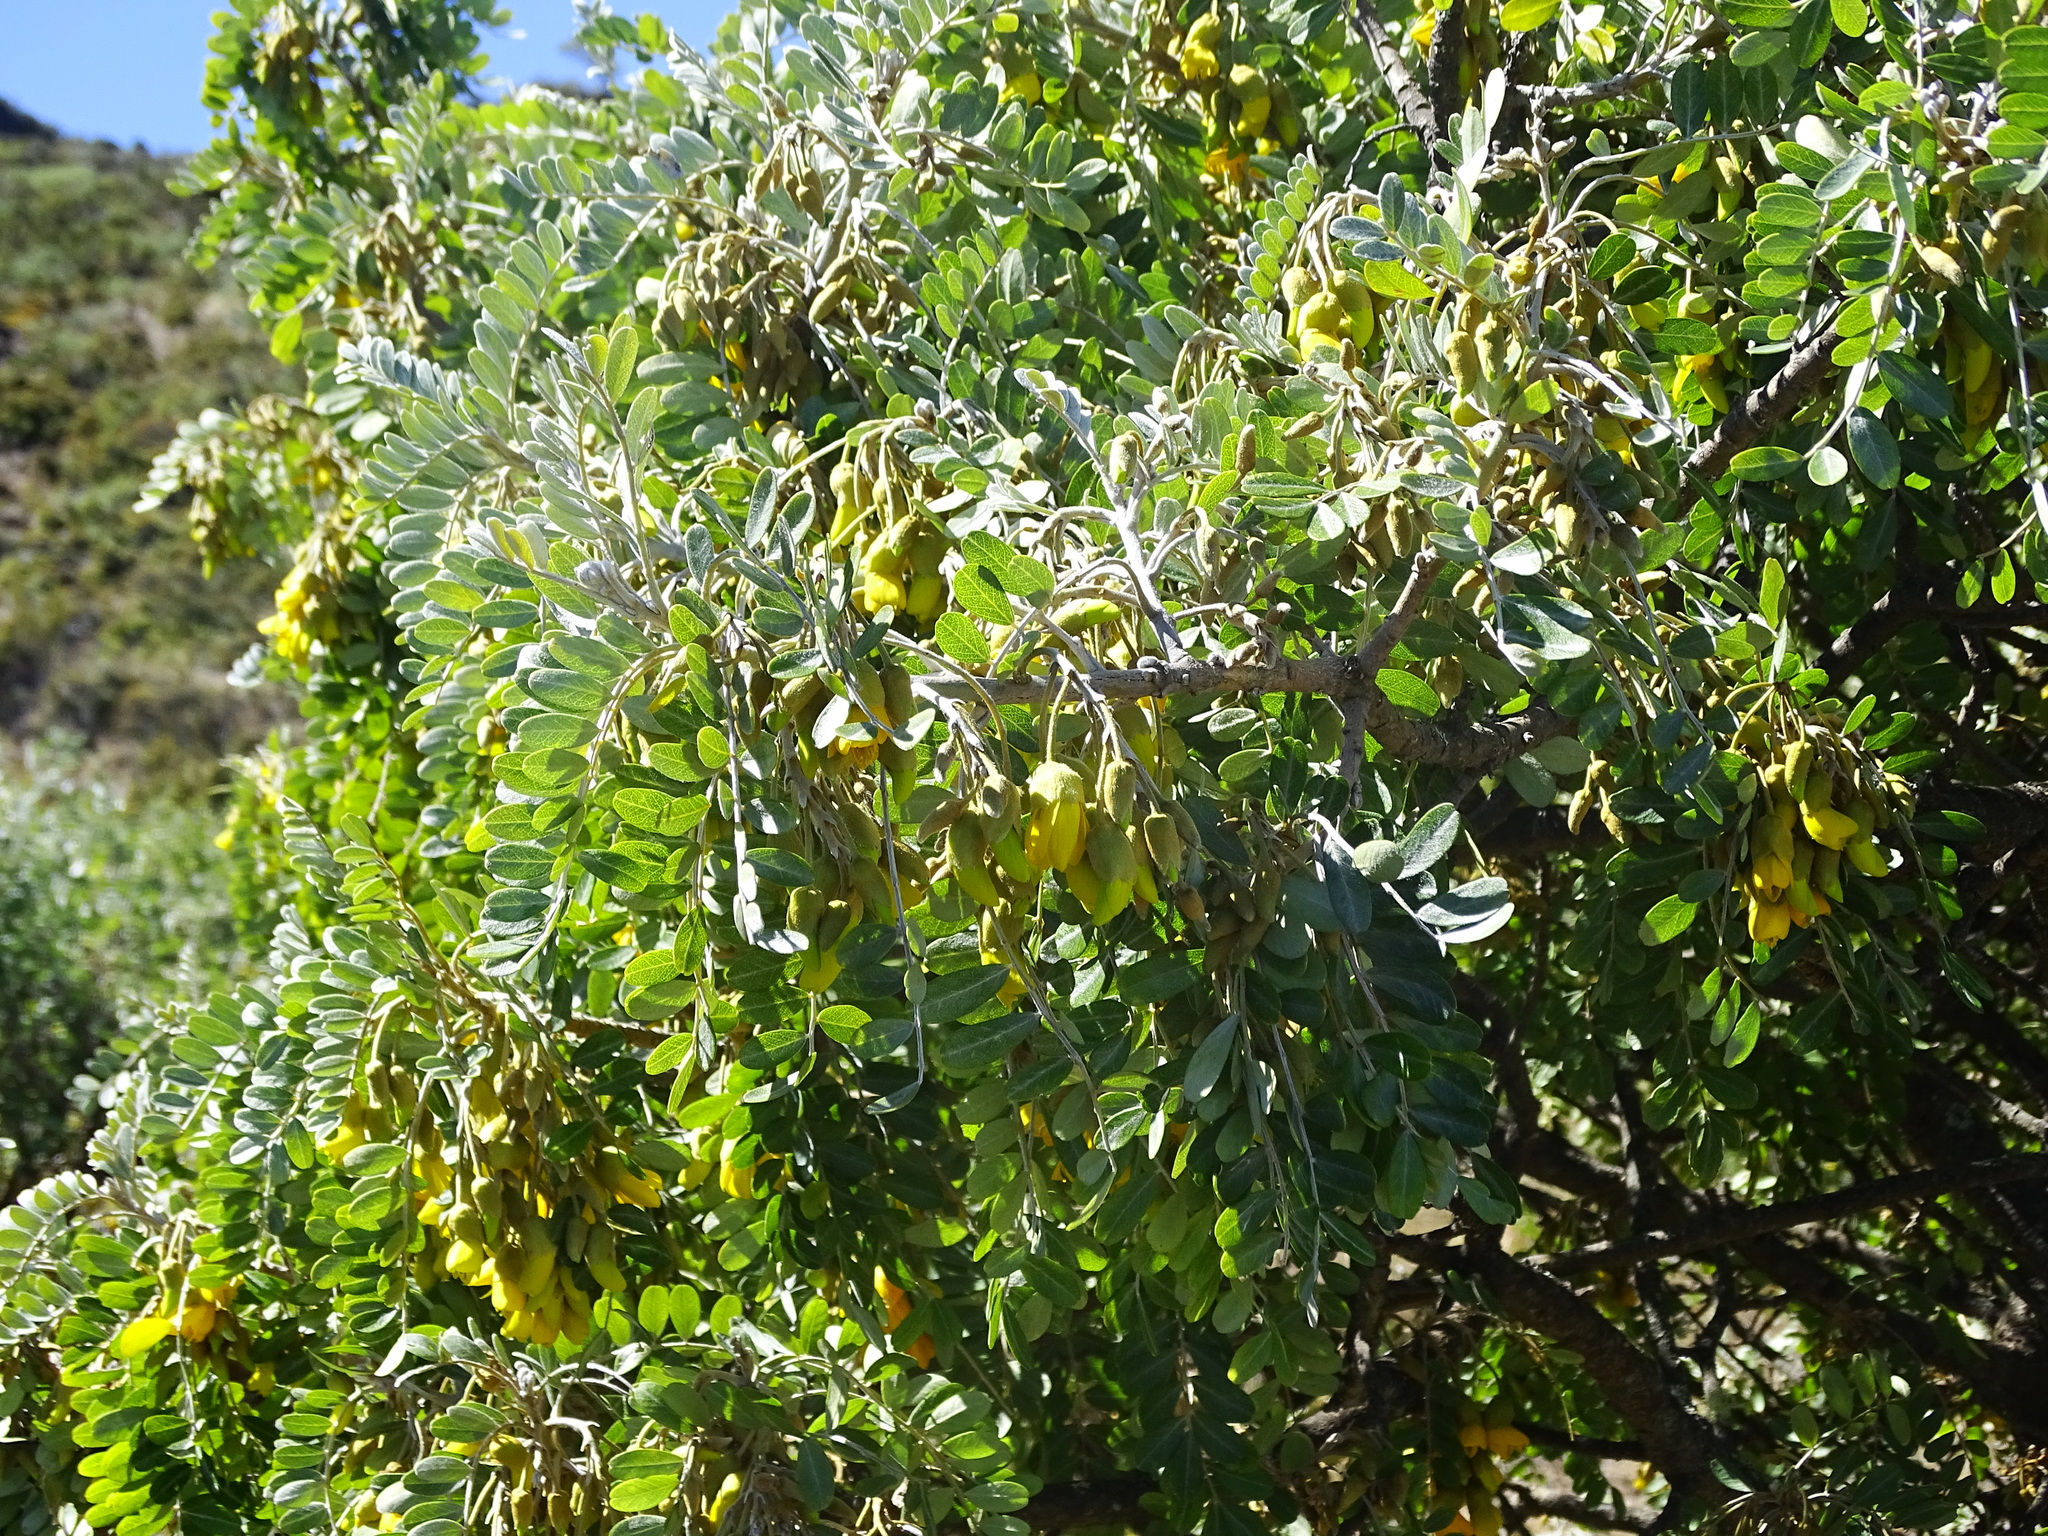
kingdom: Plantae
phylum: Tracheophyta
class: Magnoliopsida
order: Fabales
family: Fabaceae
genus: Sophora
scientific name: Sophora chrysophylla
